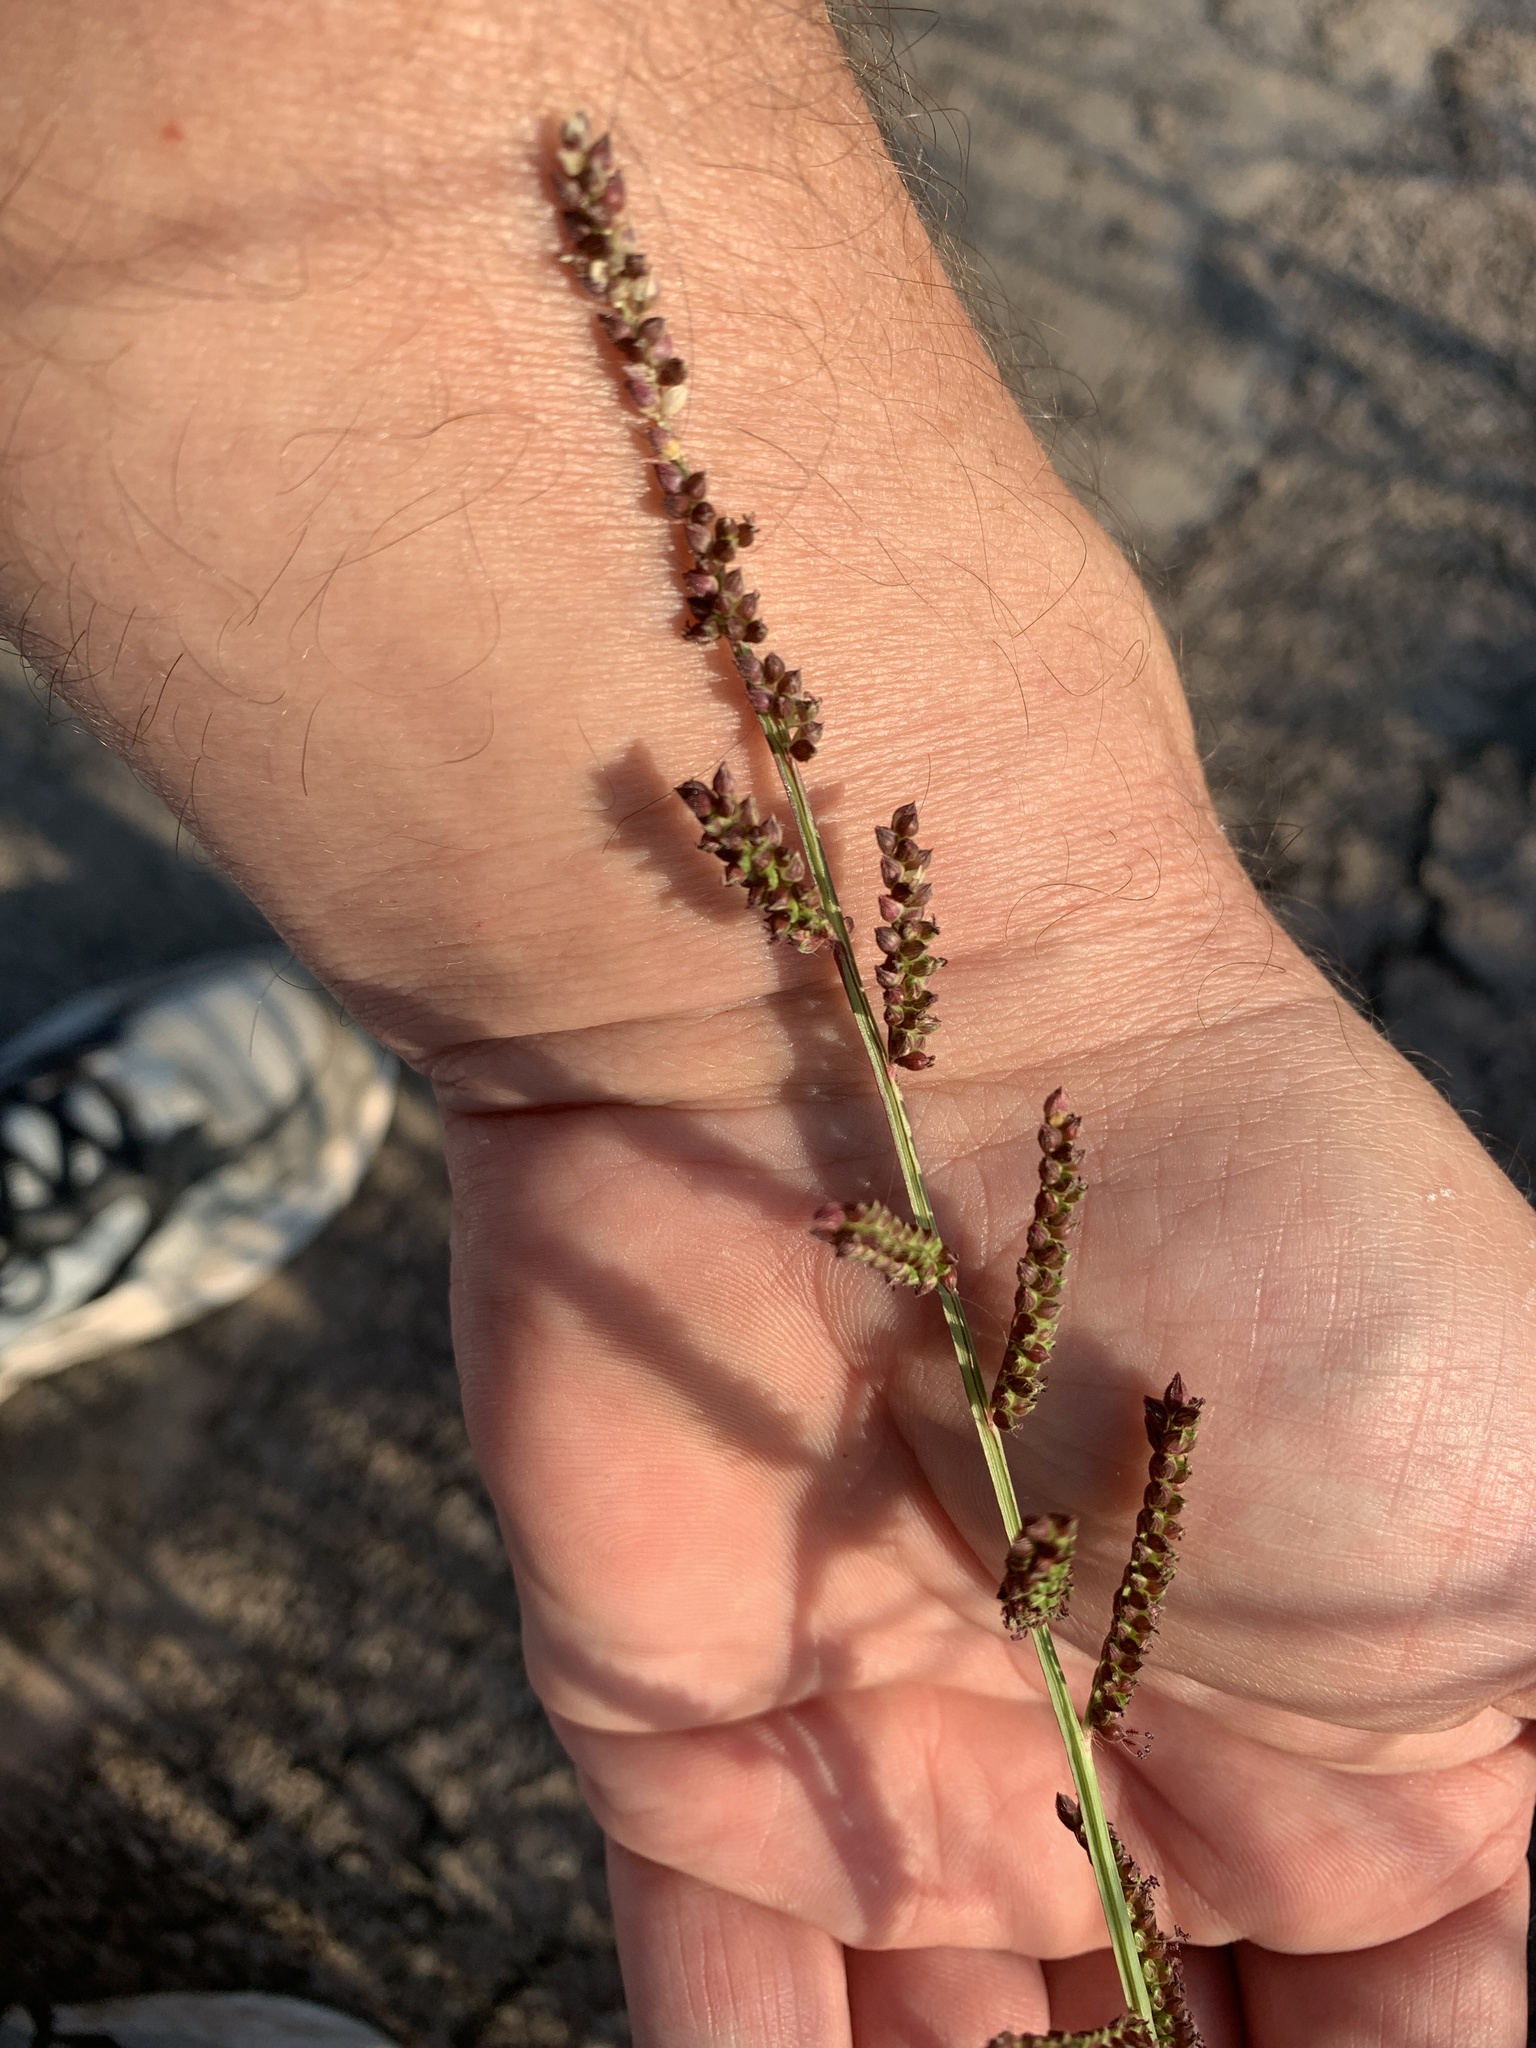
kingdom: Plantae
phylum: Tracheophyta
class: Liliopsida
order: Poales
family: Poaceae
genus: Echinochloa
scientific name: Echinochloa colonum
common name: Jungle rice
